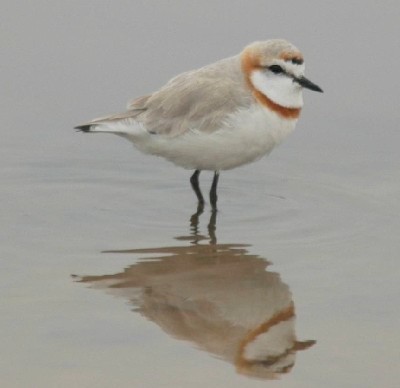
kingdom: Animalia
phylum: Chordata
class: Aves
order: Charadriiformes
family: Charadriidae
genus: Anarhynchus
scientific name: Anarhynchus
